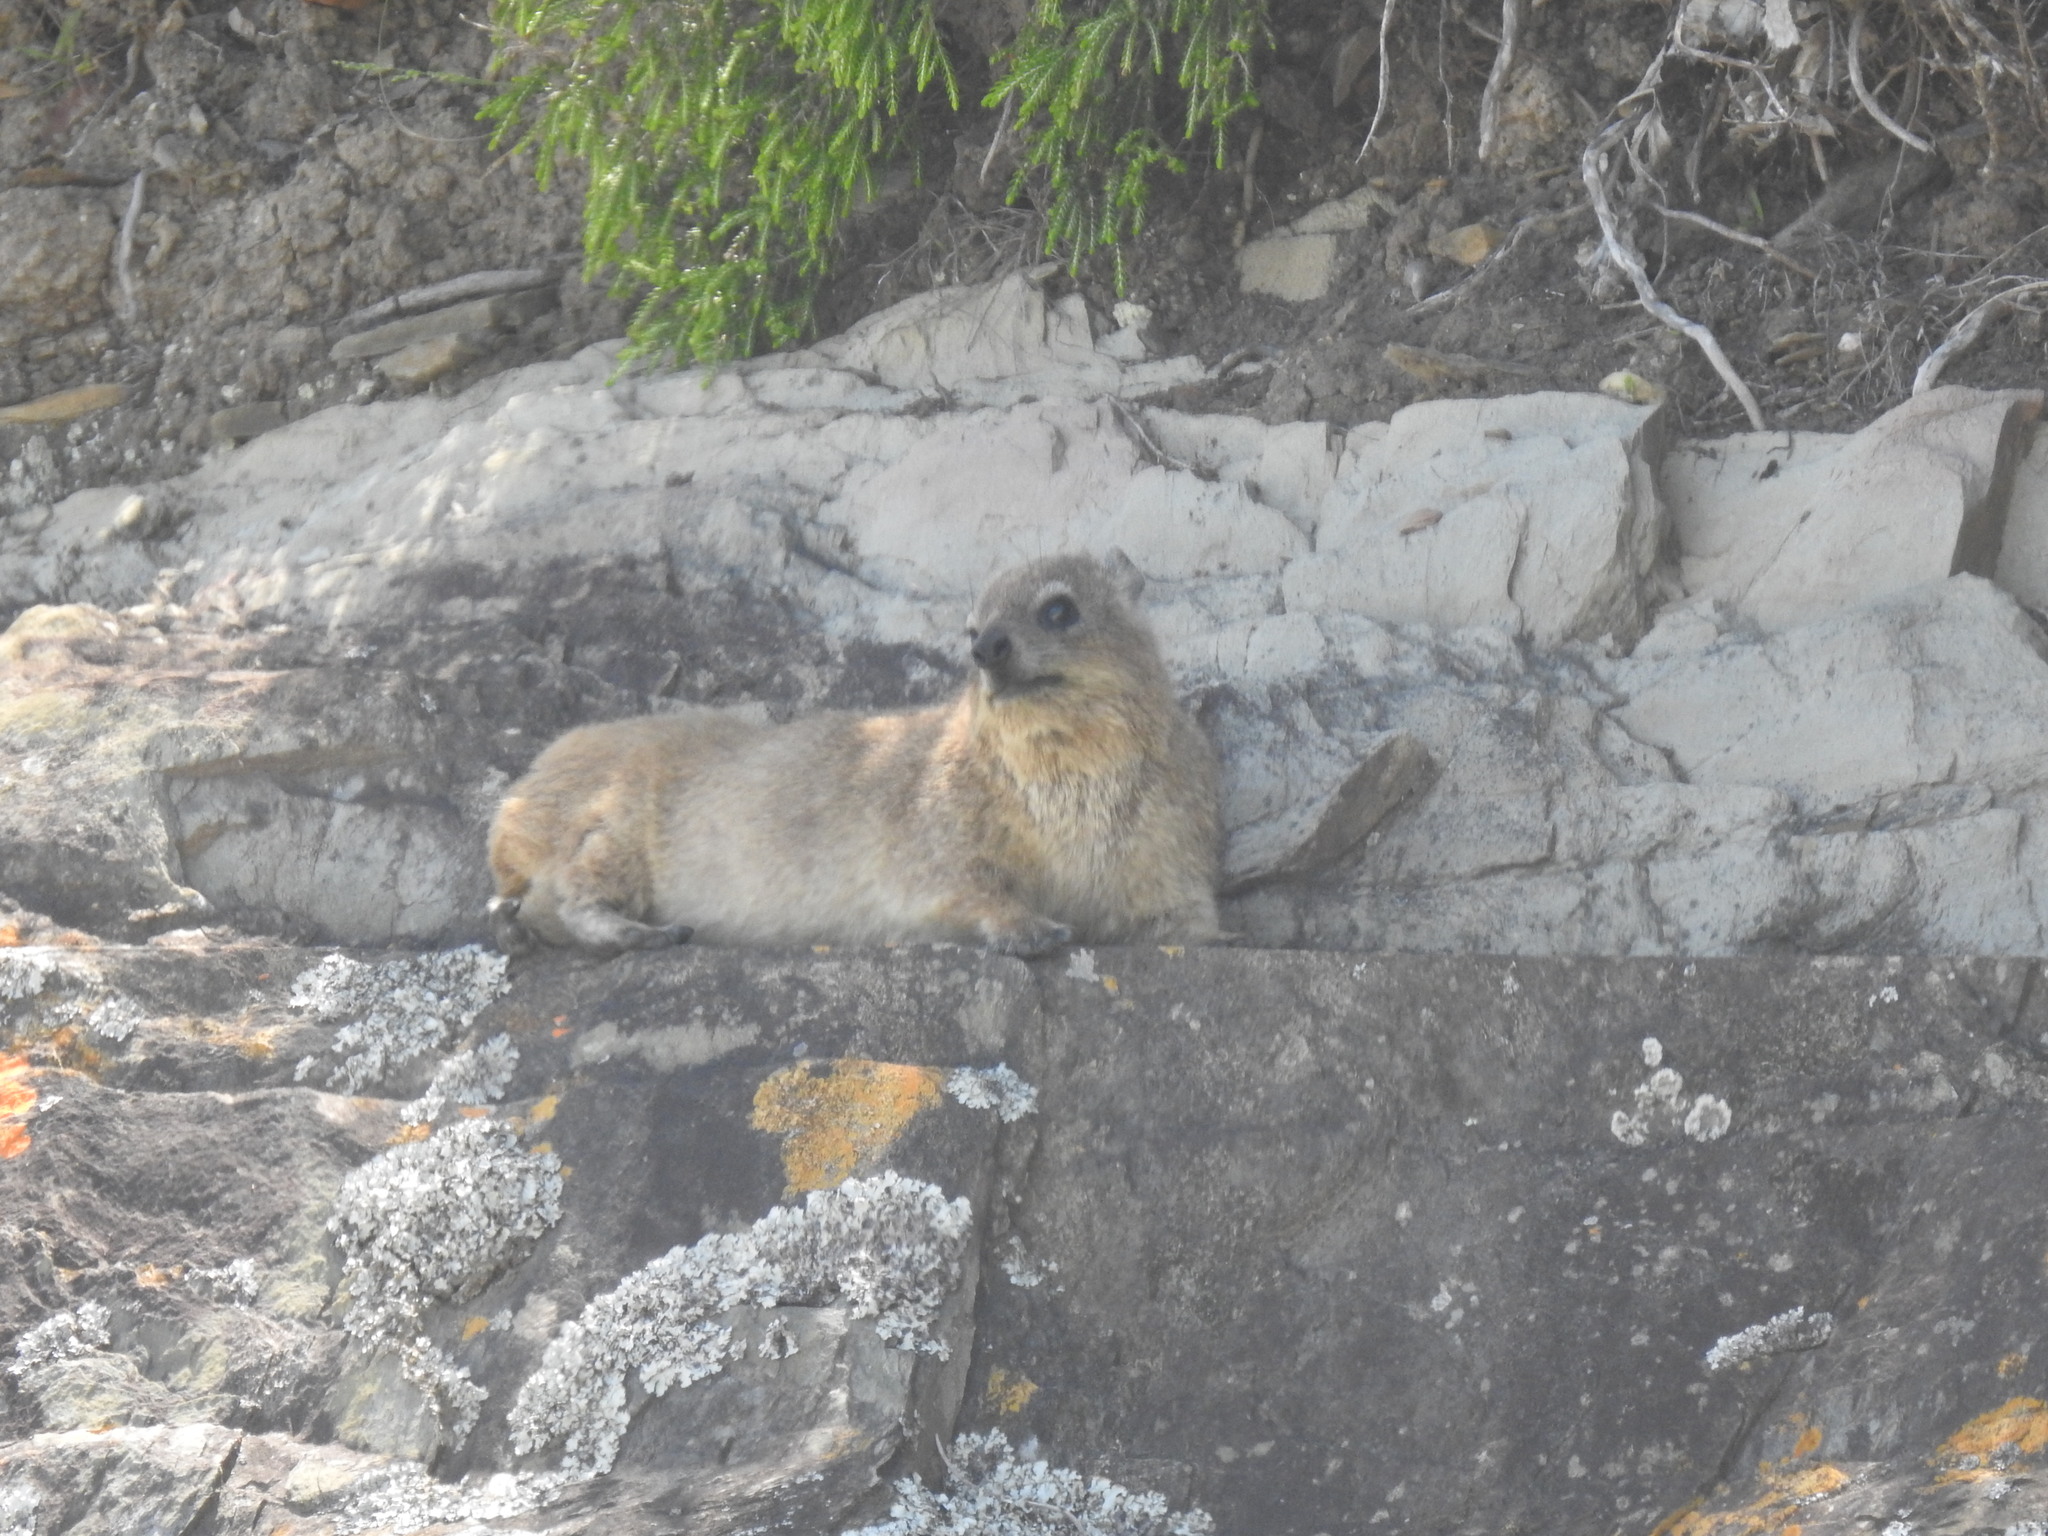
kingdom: Animalia
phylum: Chordata
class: Mammalia
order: Hyracoidea
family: Procaviidae
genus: Procavia
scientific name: Procavia capensis
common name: Rock hyrax
